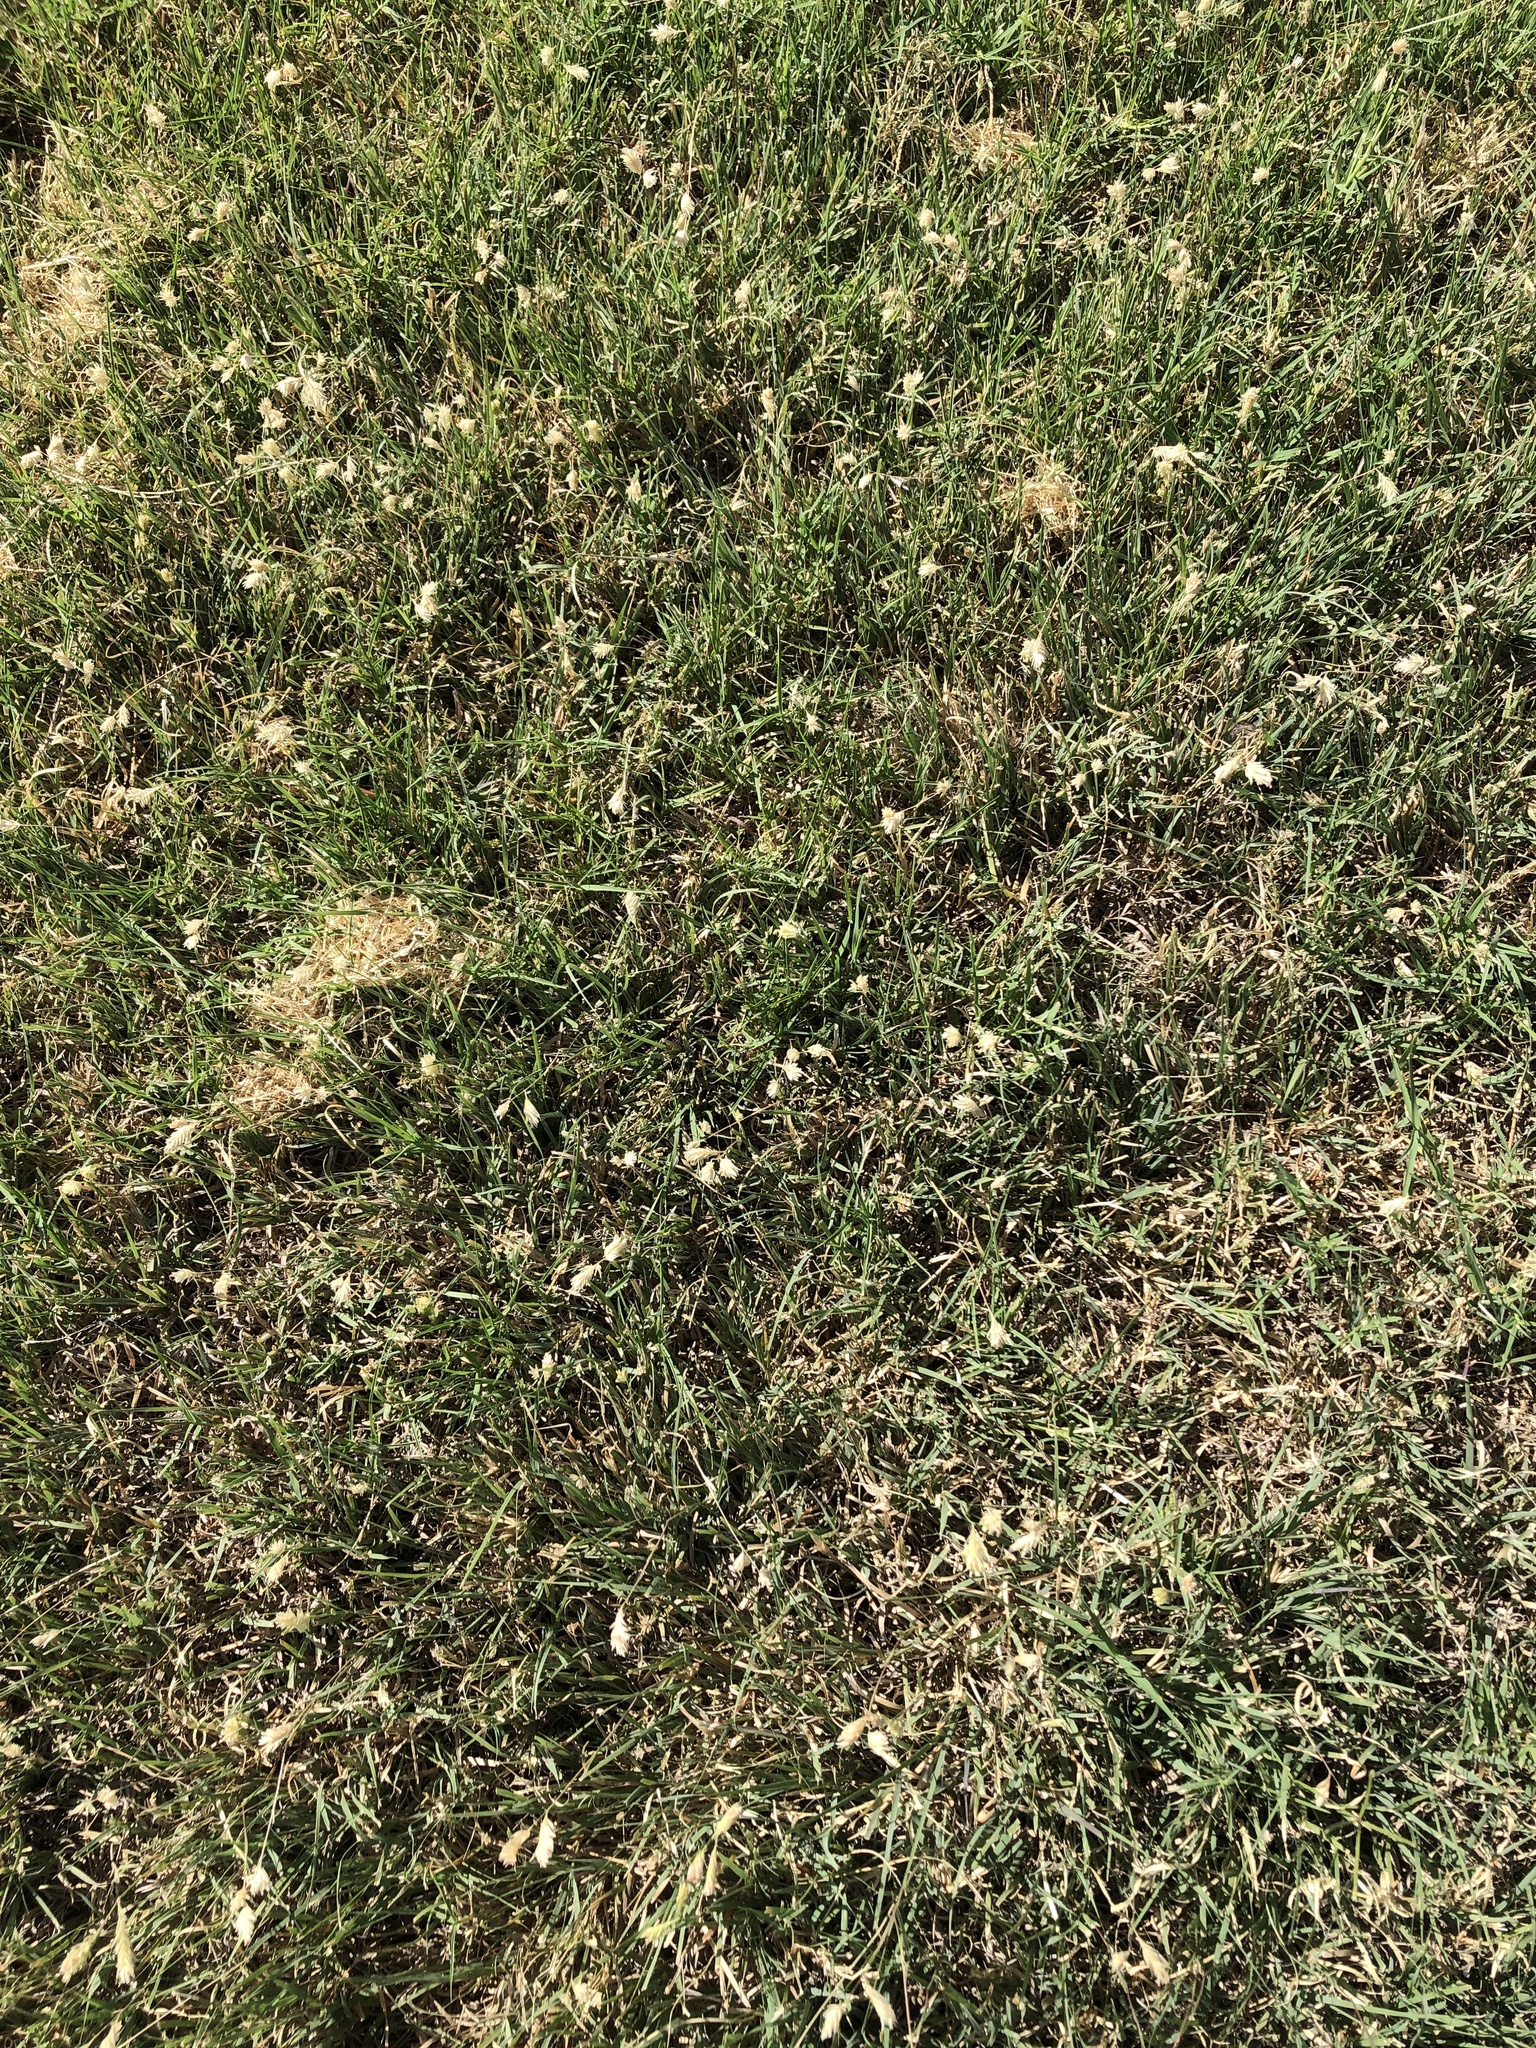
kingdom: Plantae
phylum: Tracheophyta
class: Liliopsida
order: Poales
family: Poaceae
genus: Bouteloua
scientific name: Bouteloua dactyloides
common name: Buffalo grass
